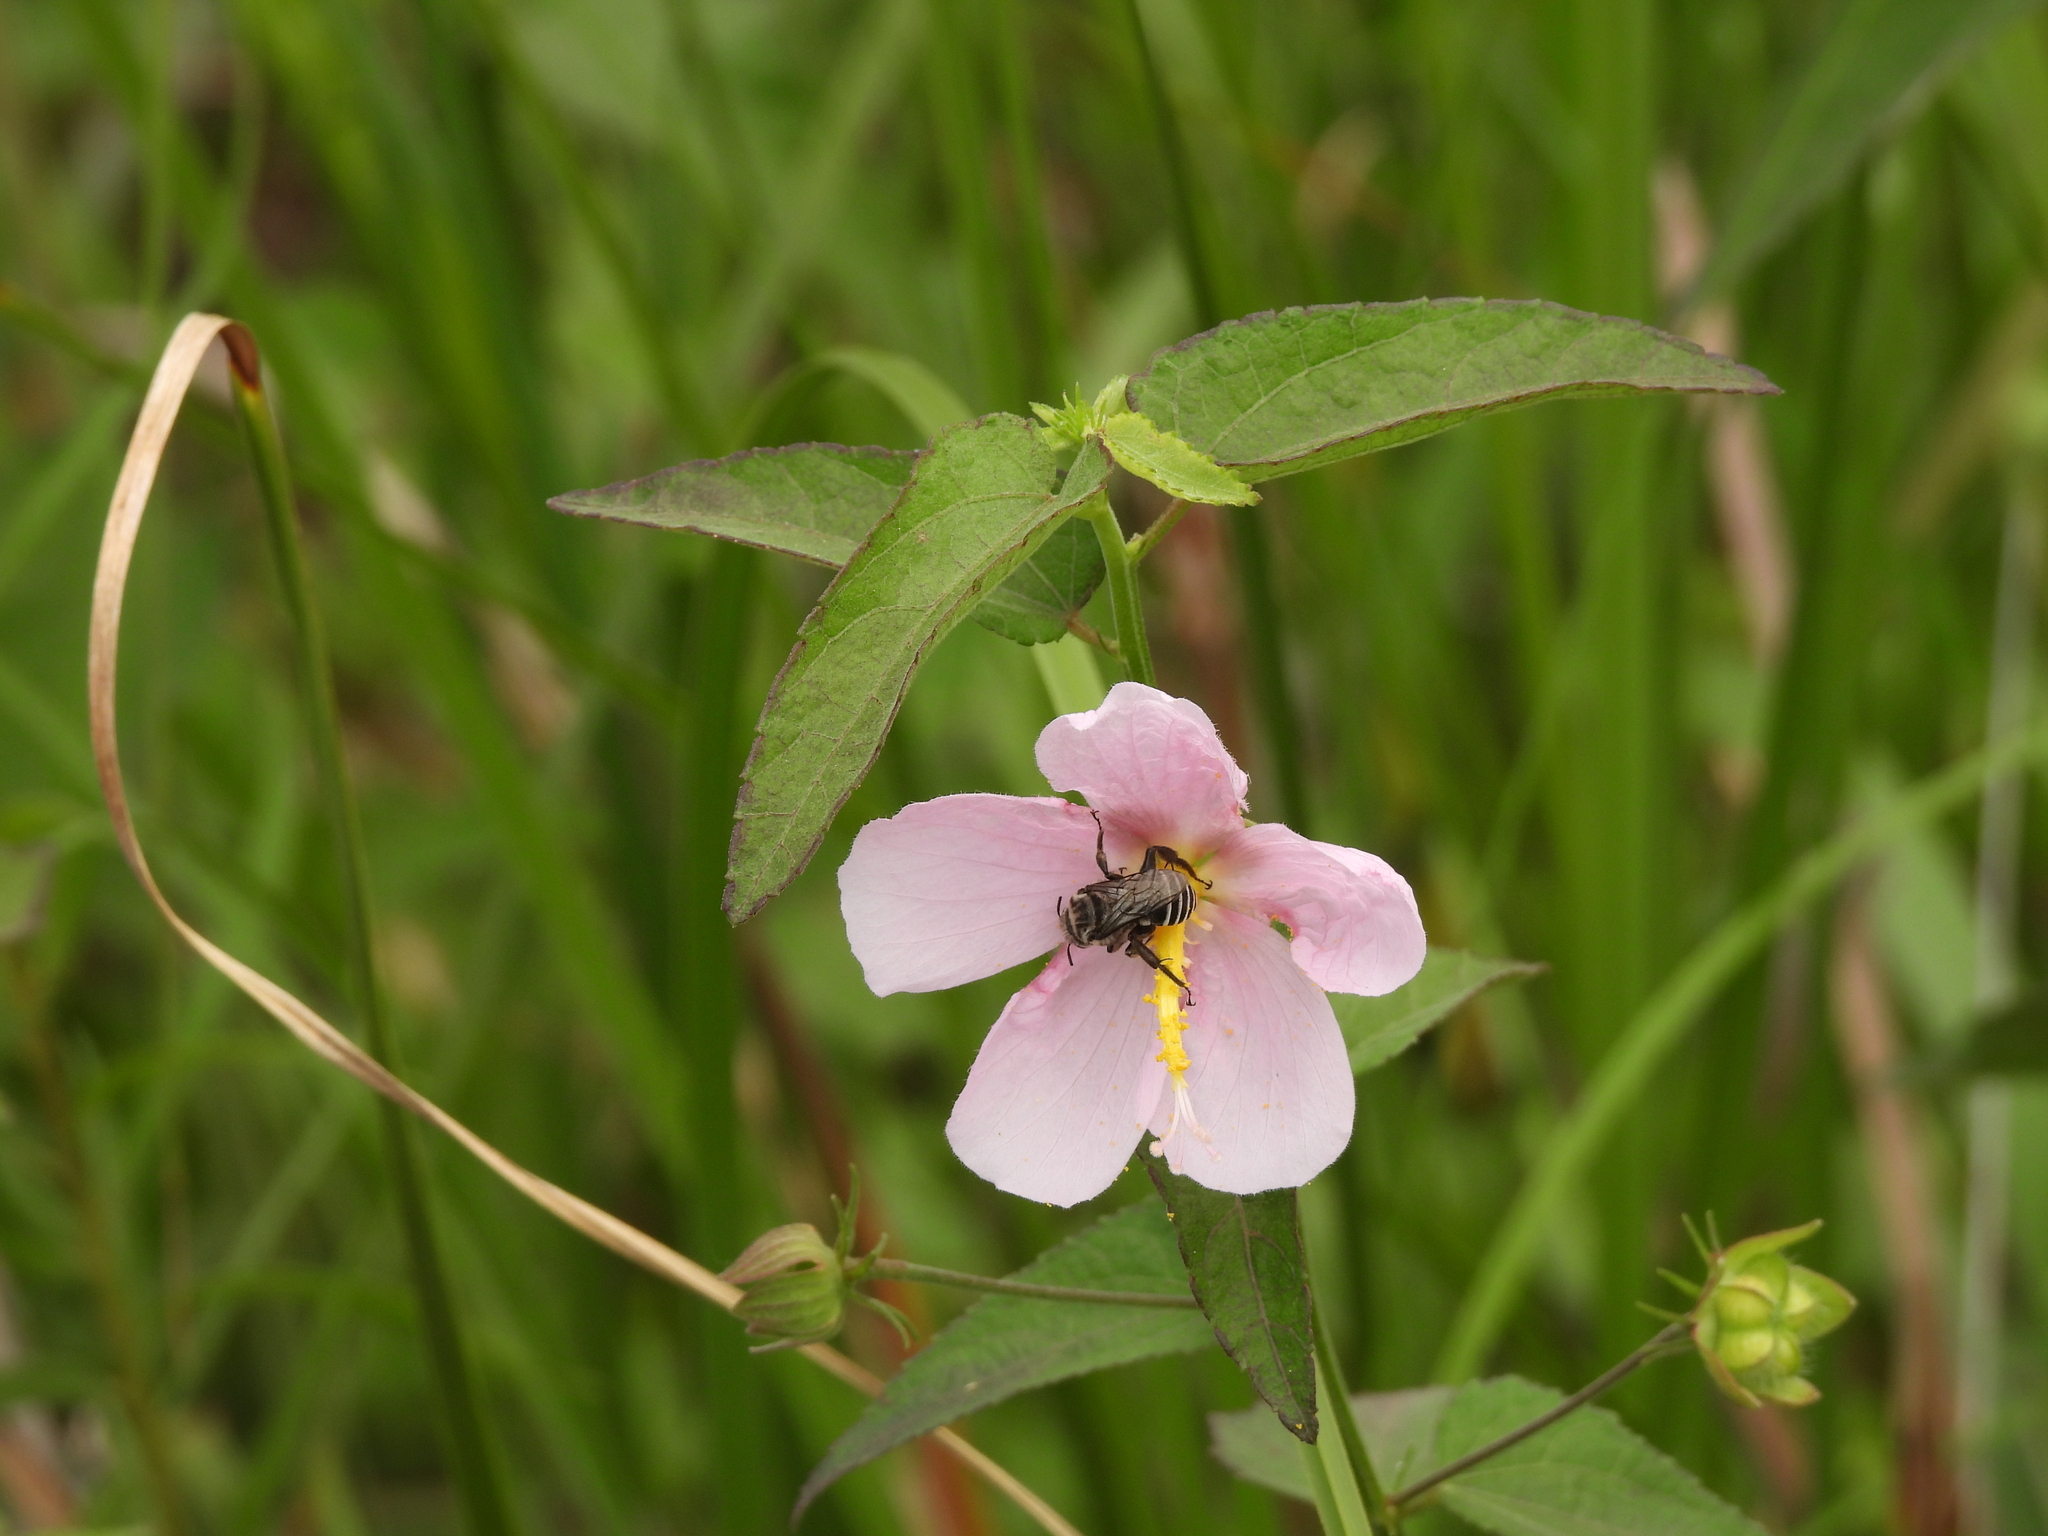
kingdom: Animalia
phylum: Arthropoda
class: Insecta
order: Hymenoptera
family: Apidae
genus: Melitoma
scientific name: Melitoma taurea
